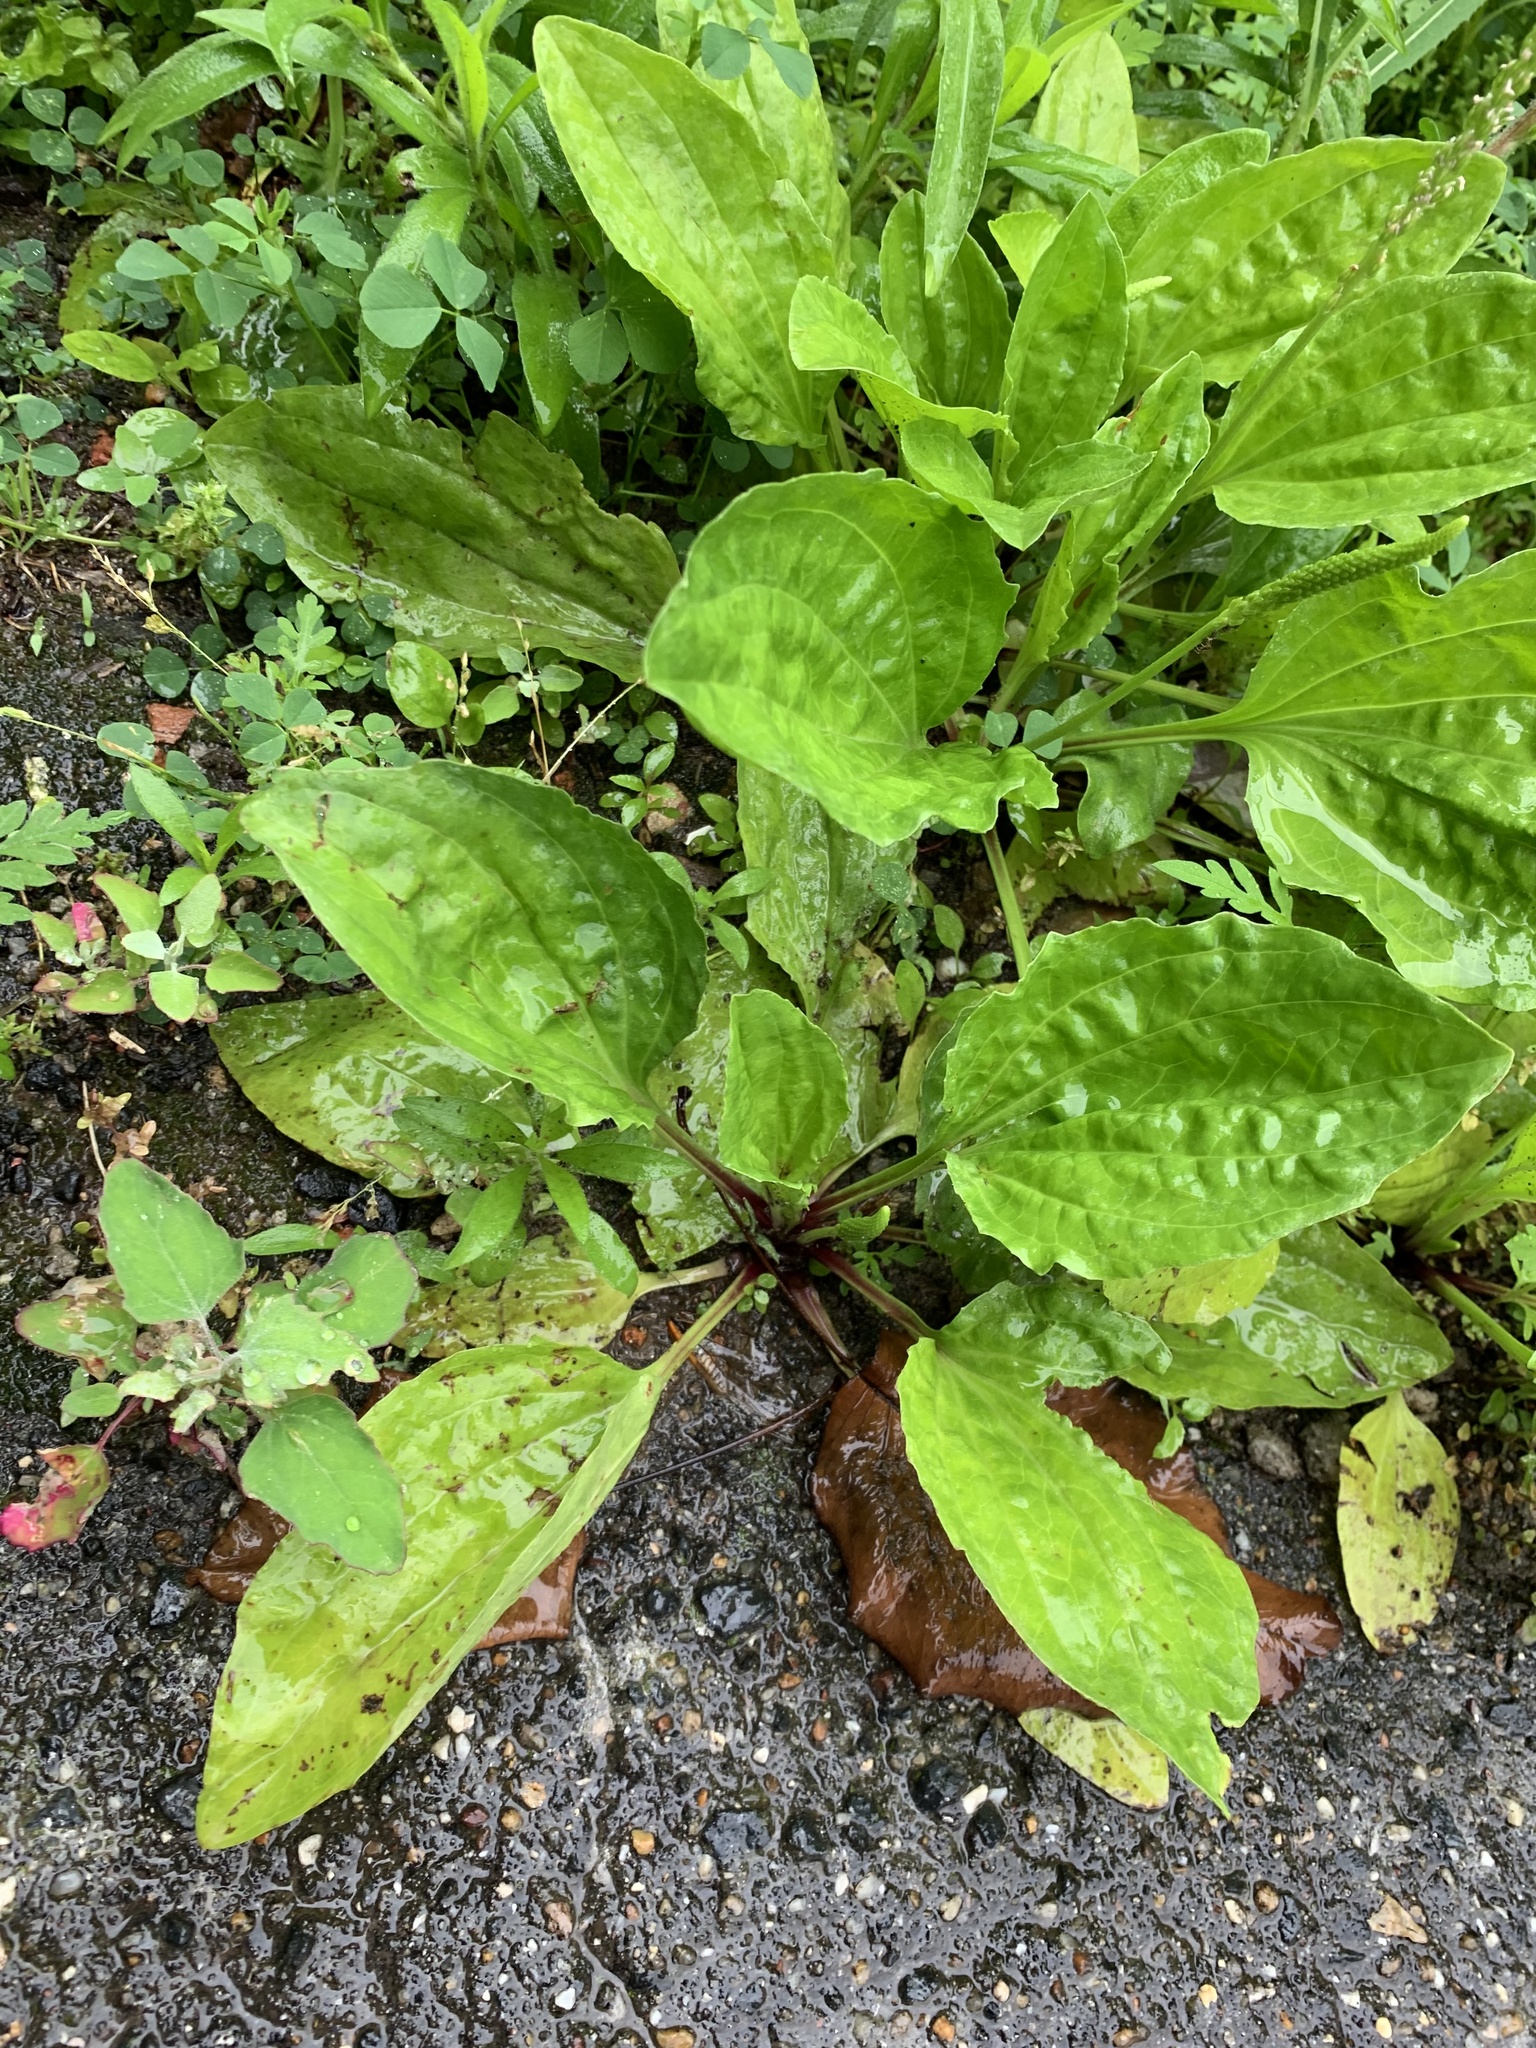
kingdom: Plantae
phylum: Tracheophyta
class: Magnoliopsida
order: Lamiales
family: Plantaginaceae
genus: Plantago
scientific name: Plantago rugelii
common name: American plantain
